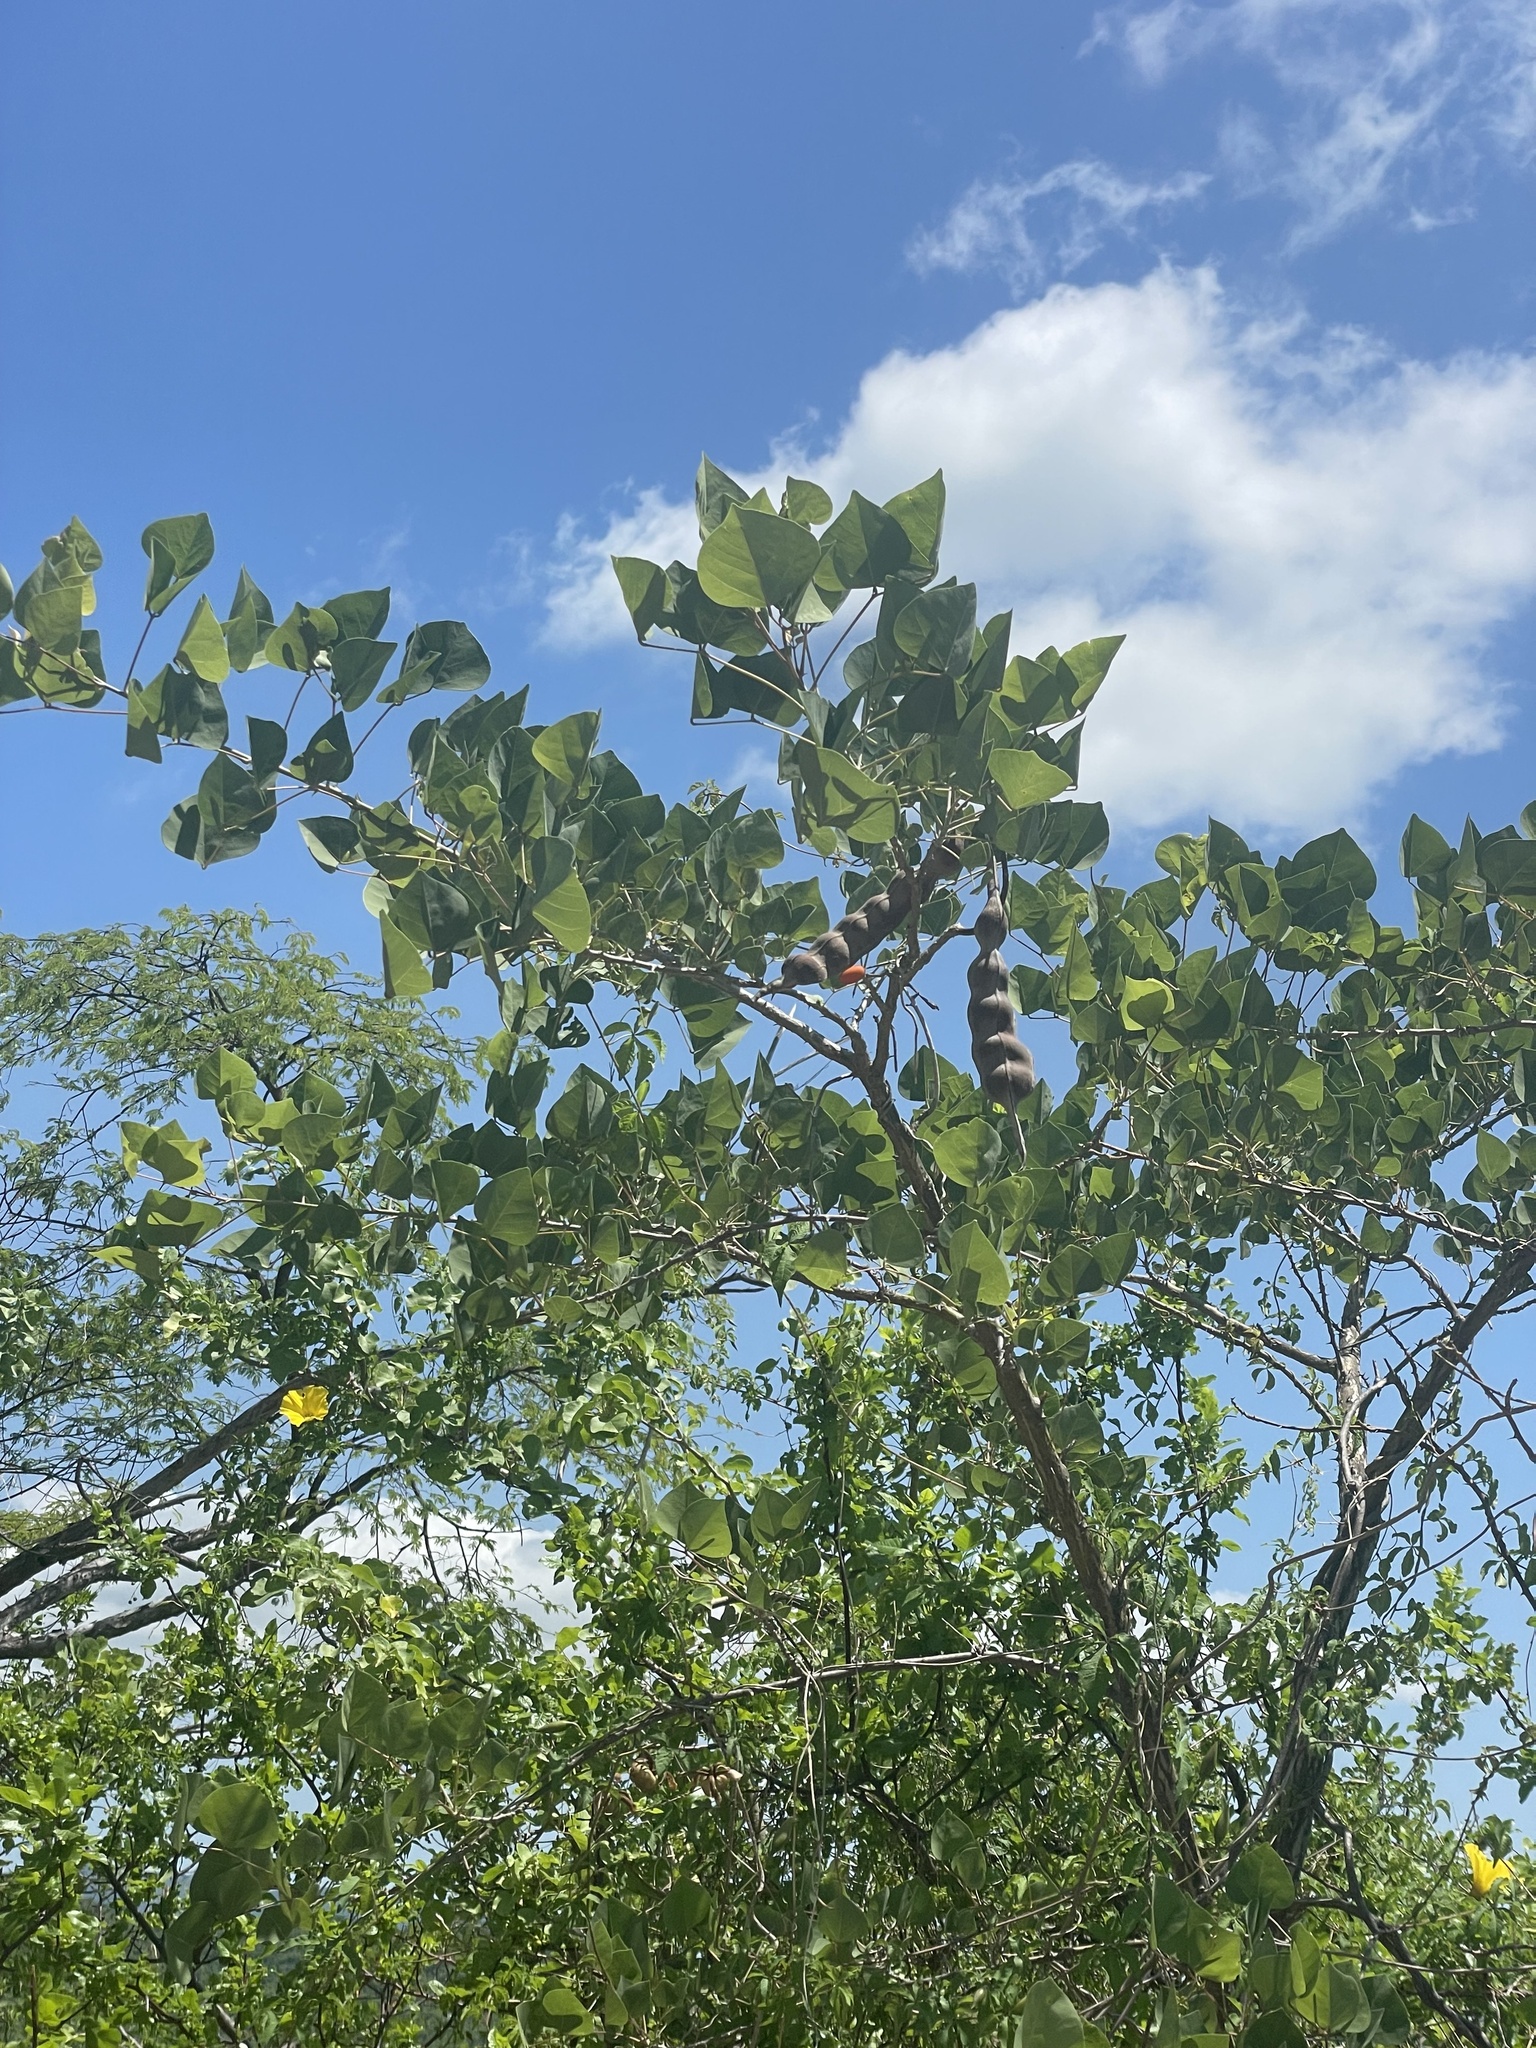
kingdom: Plantae
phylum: Tracheophyta
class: Magnoliopsida
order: Fabales
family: Fabaceae
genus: Erythrina
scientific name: Erythrina flabelliformis
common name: Chilicote
